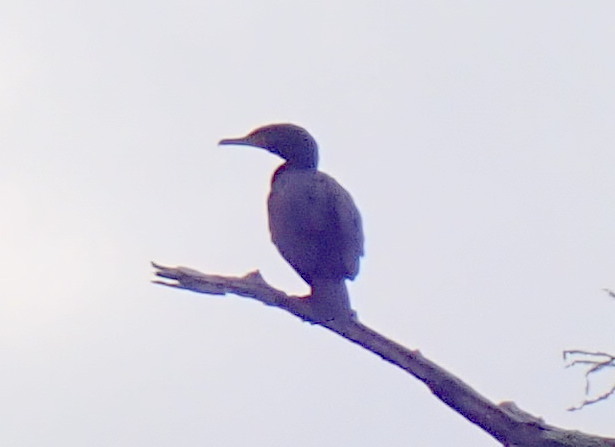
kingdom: Animalia
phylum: Chordata
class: Aves
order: Suliformes
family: Phalacrocoracidae
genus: Phalacrocorax
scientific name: Phalacrocorax auritus
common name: Double-crested cormorant
